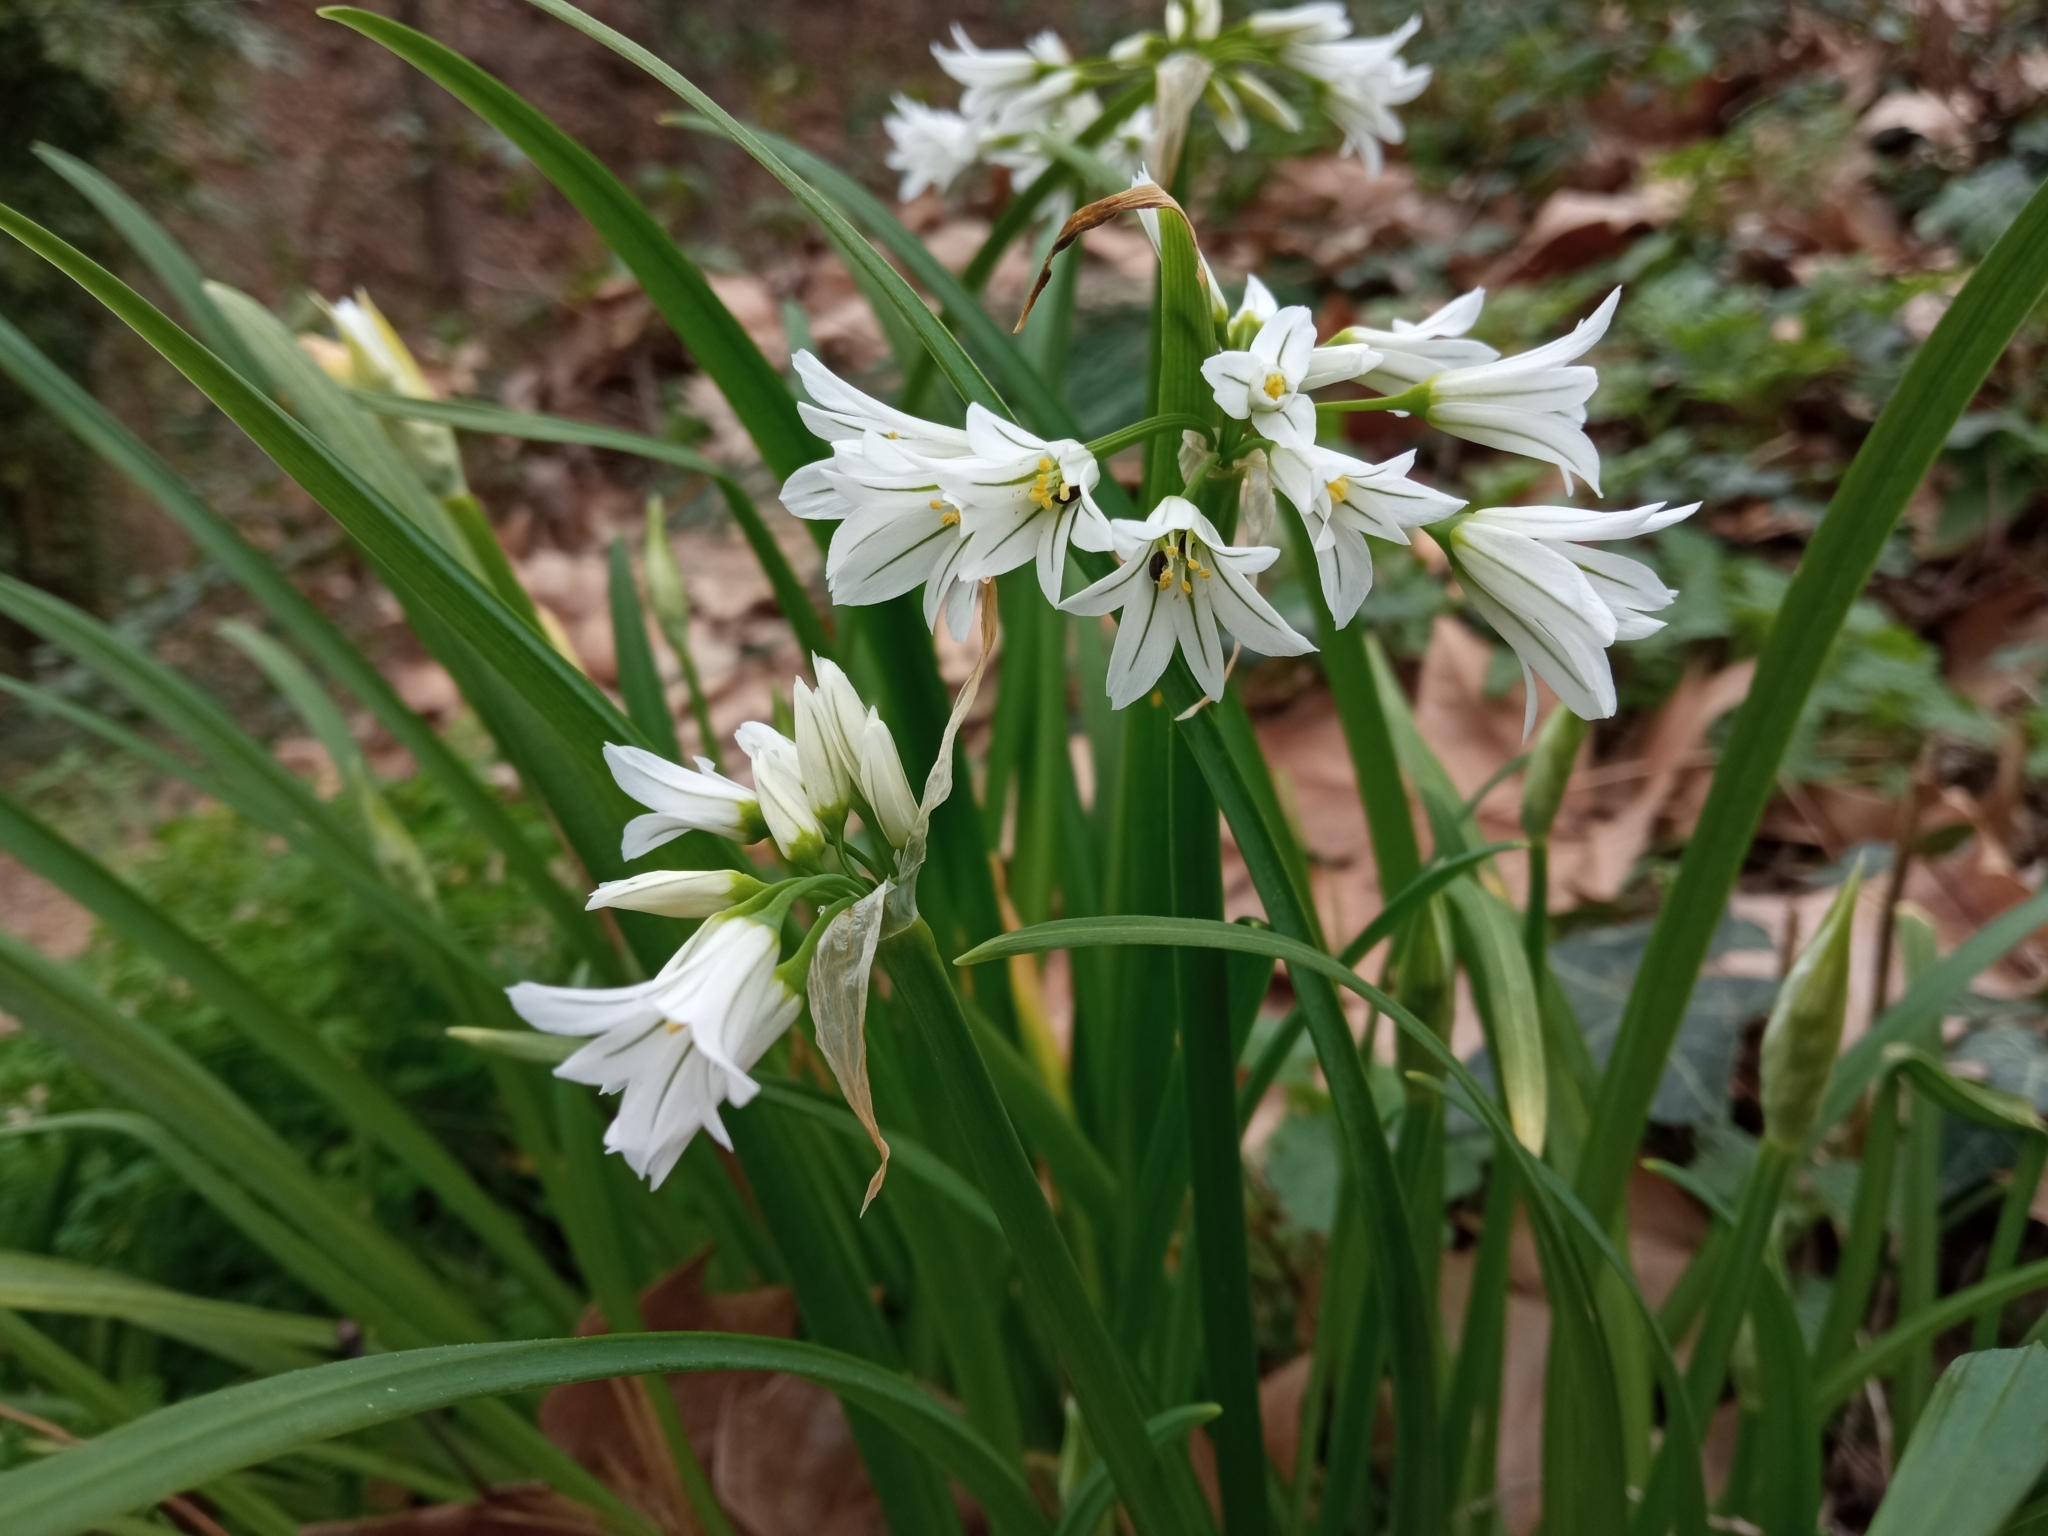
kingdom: Plantae
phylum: Tracheophyta
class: Liliopsida
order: Asparagales
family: Amaryllidaceae
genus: Allium
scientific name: Allium triquetrum
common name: Three-cornered garlic
